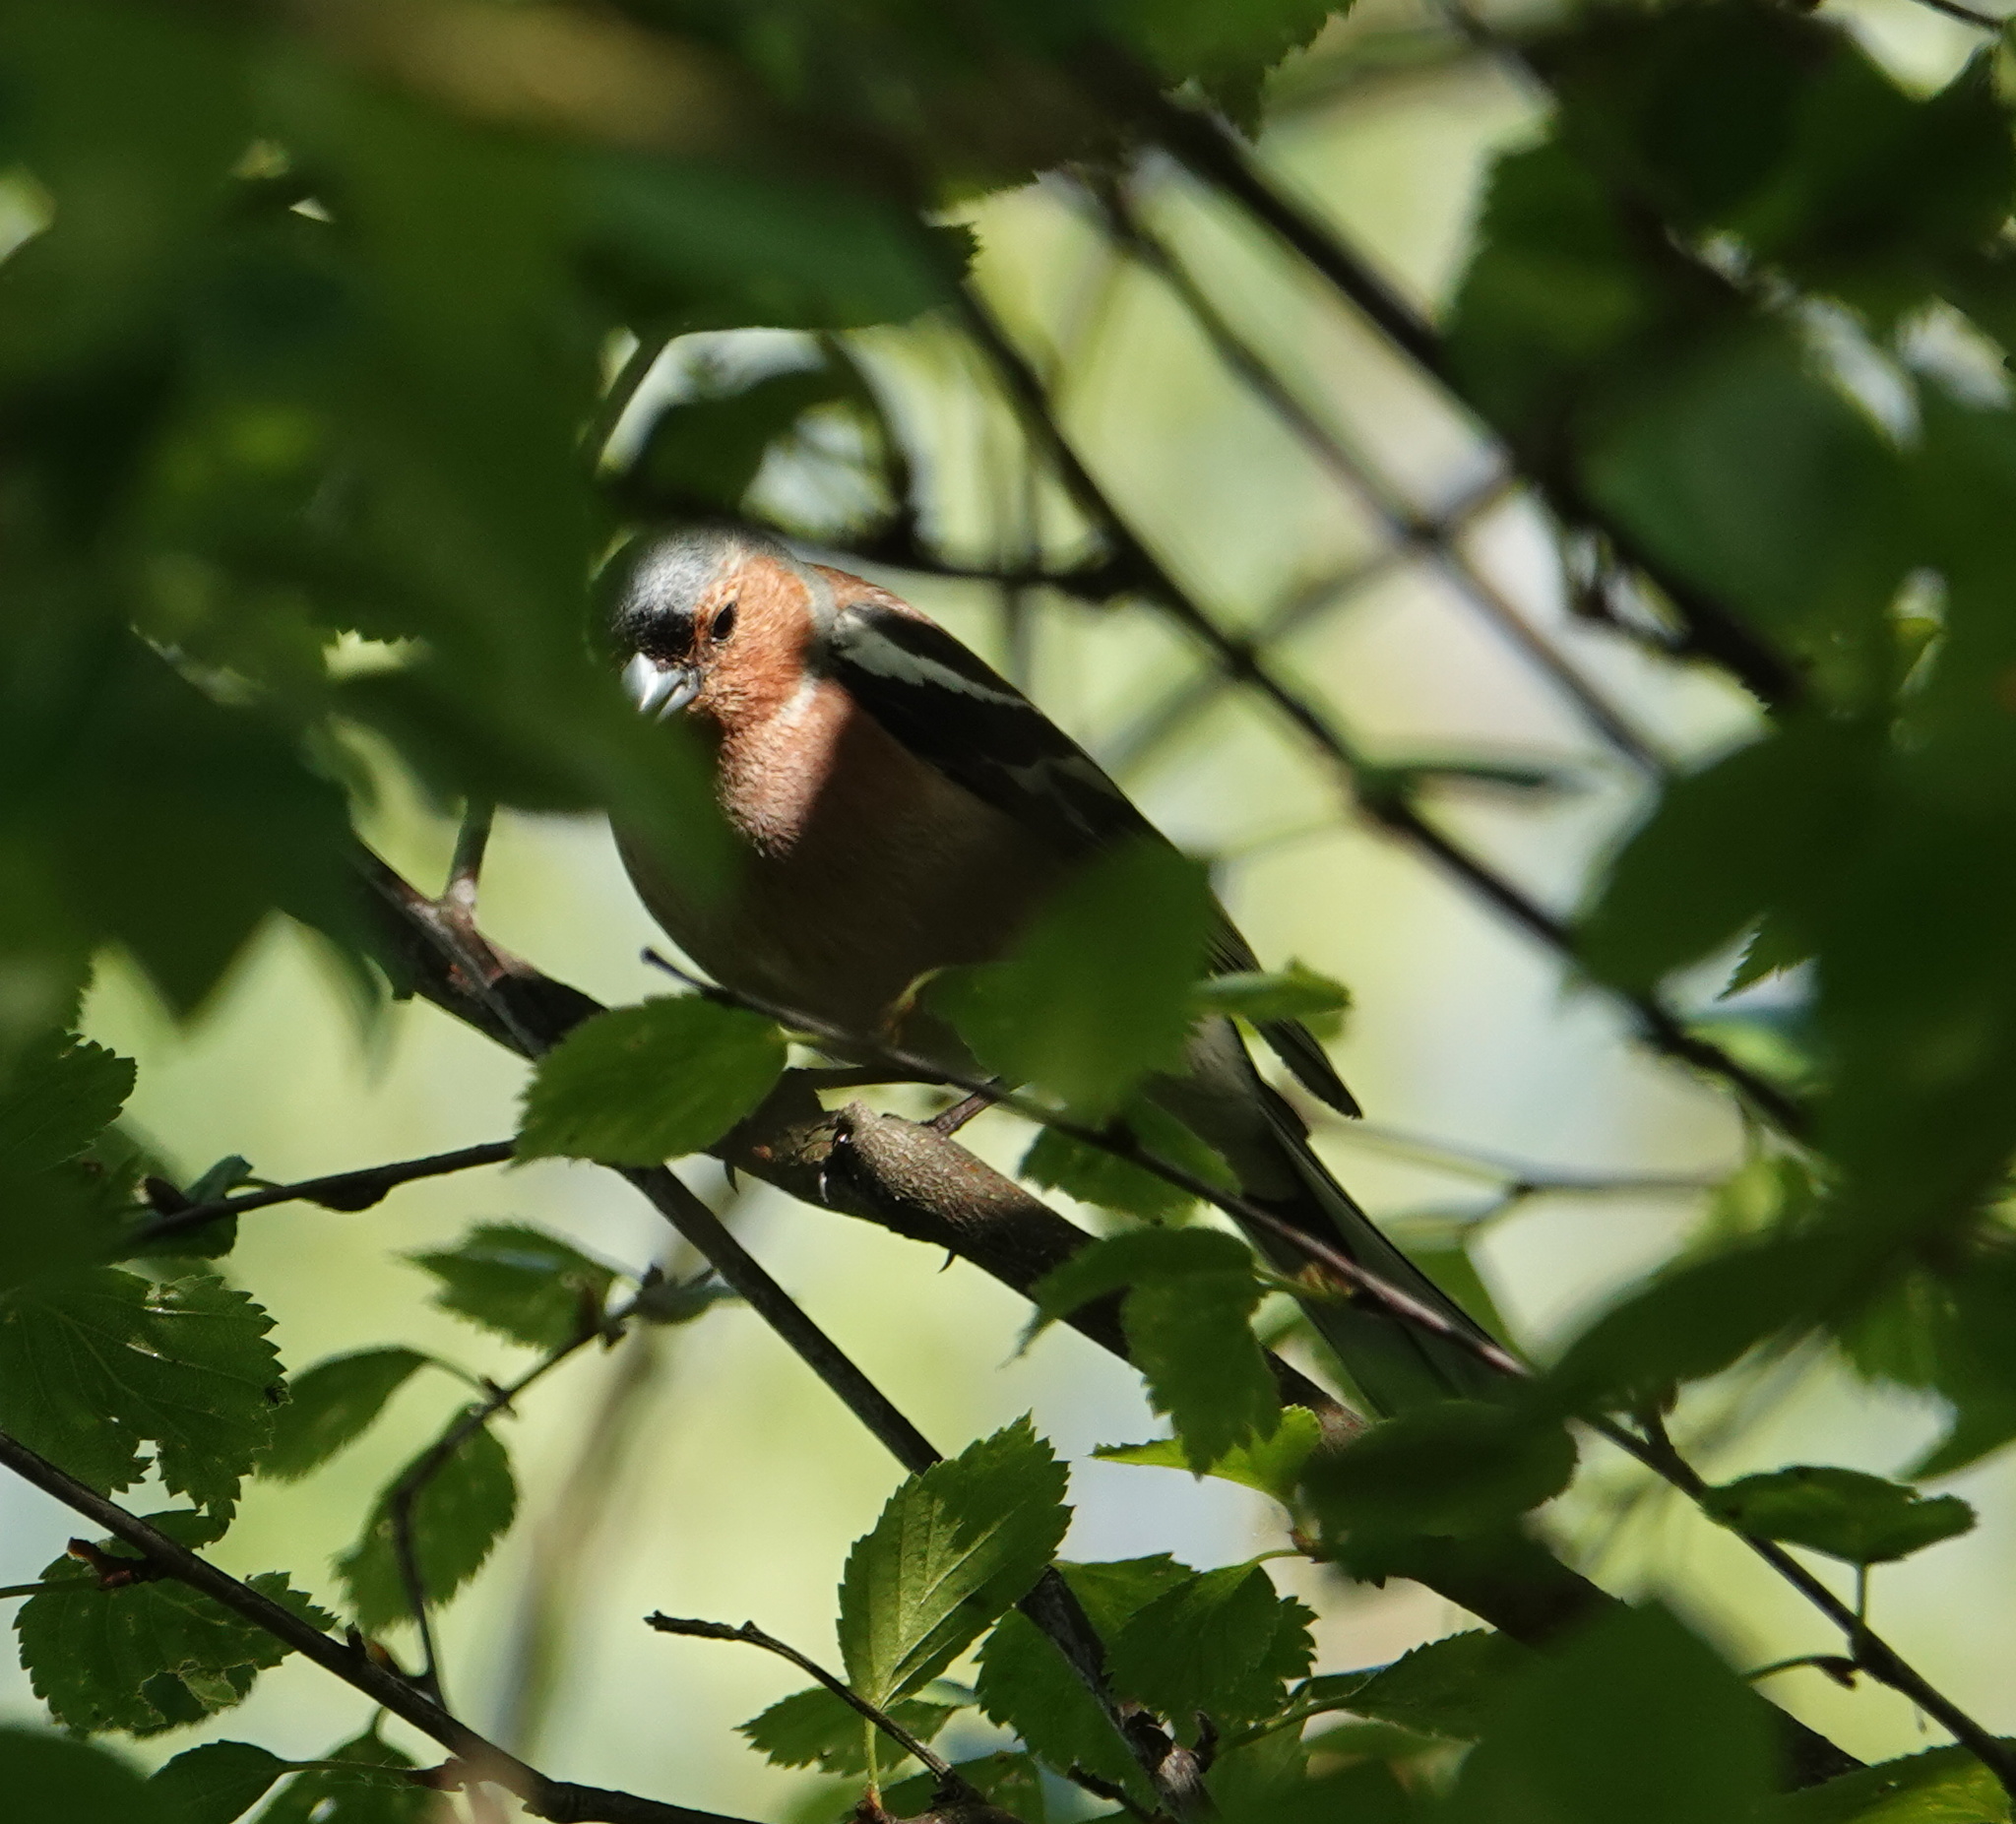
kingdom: Animalia
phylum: Chordata
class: Aves
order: Passeriformes
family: Fringillidae
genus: Fringilla
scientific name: Fringilla coelebs
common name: Common chaffinch
